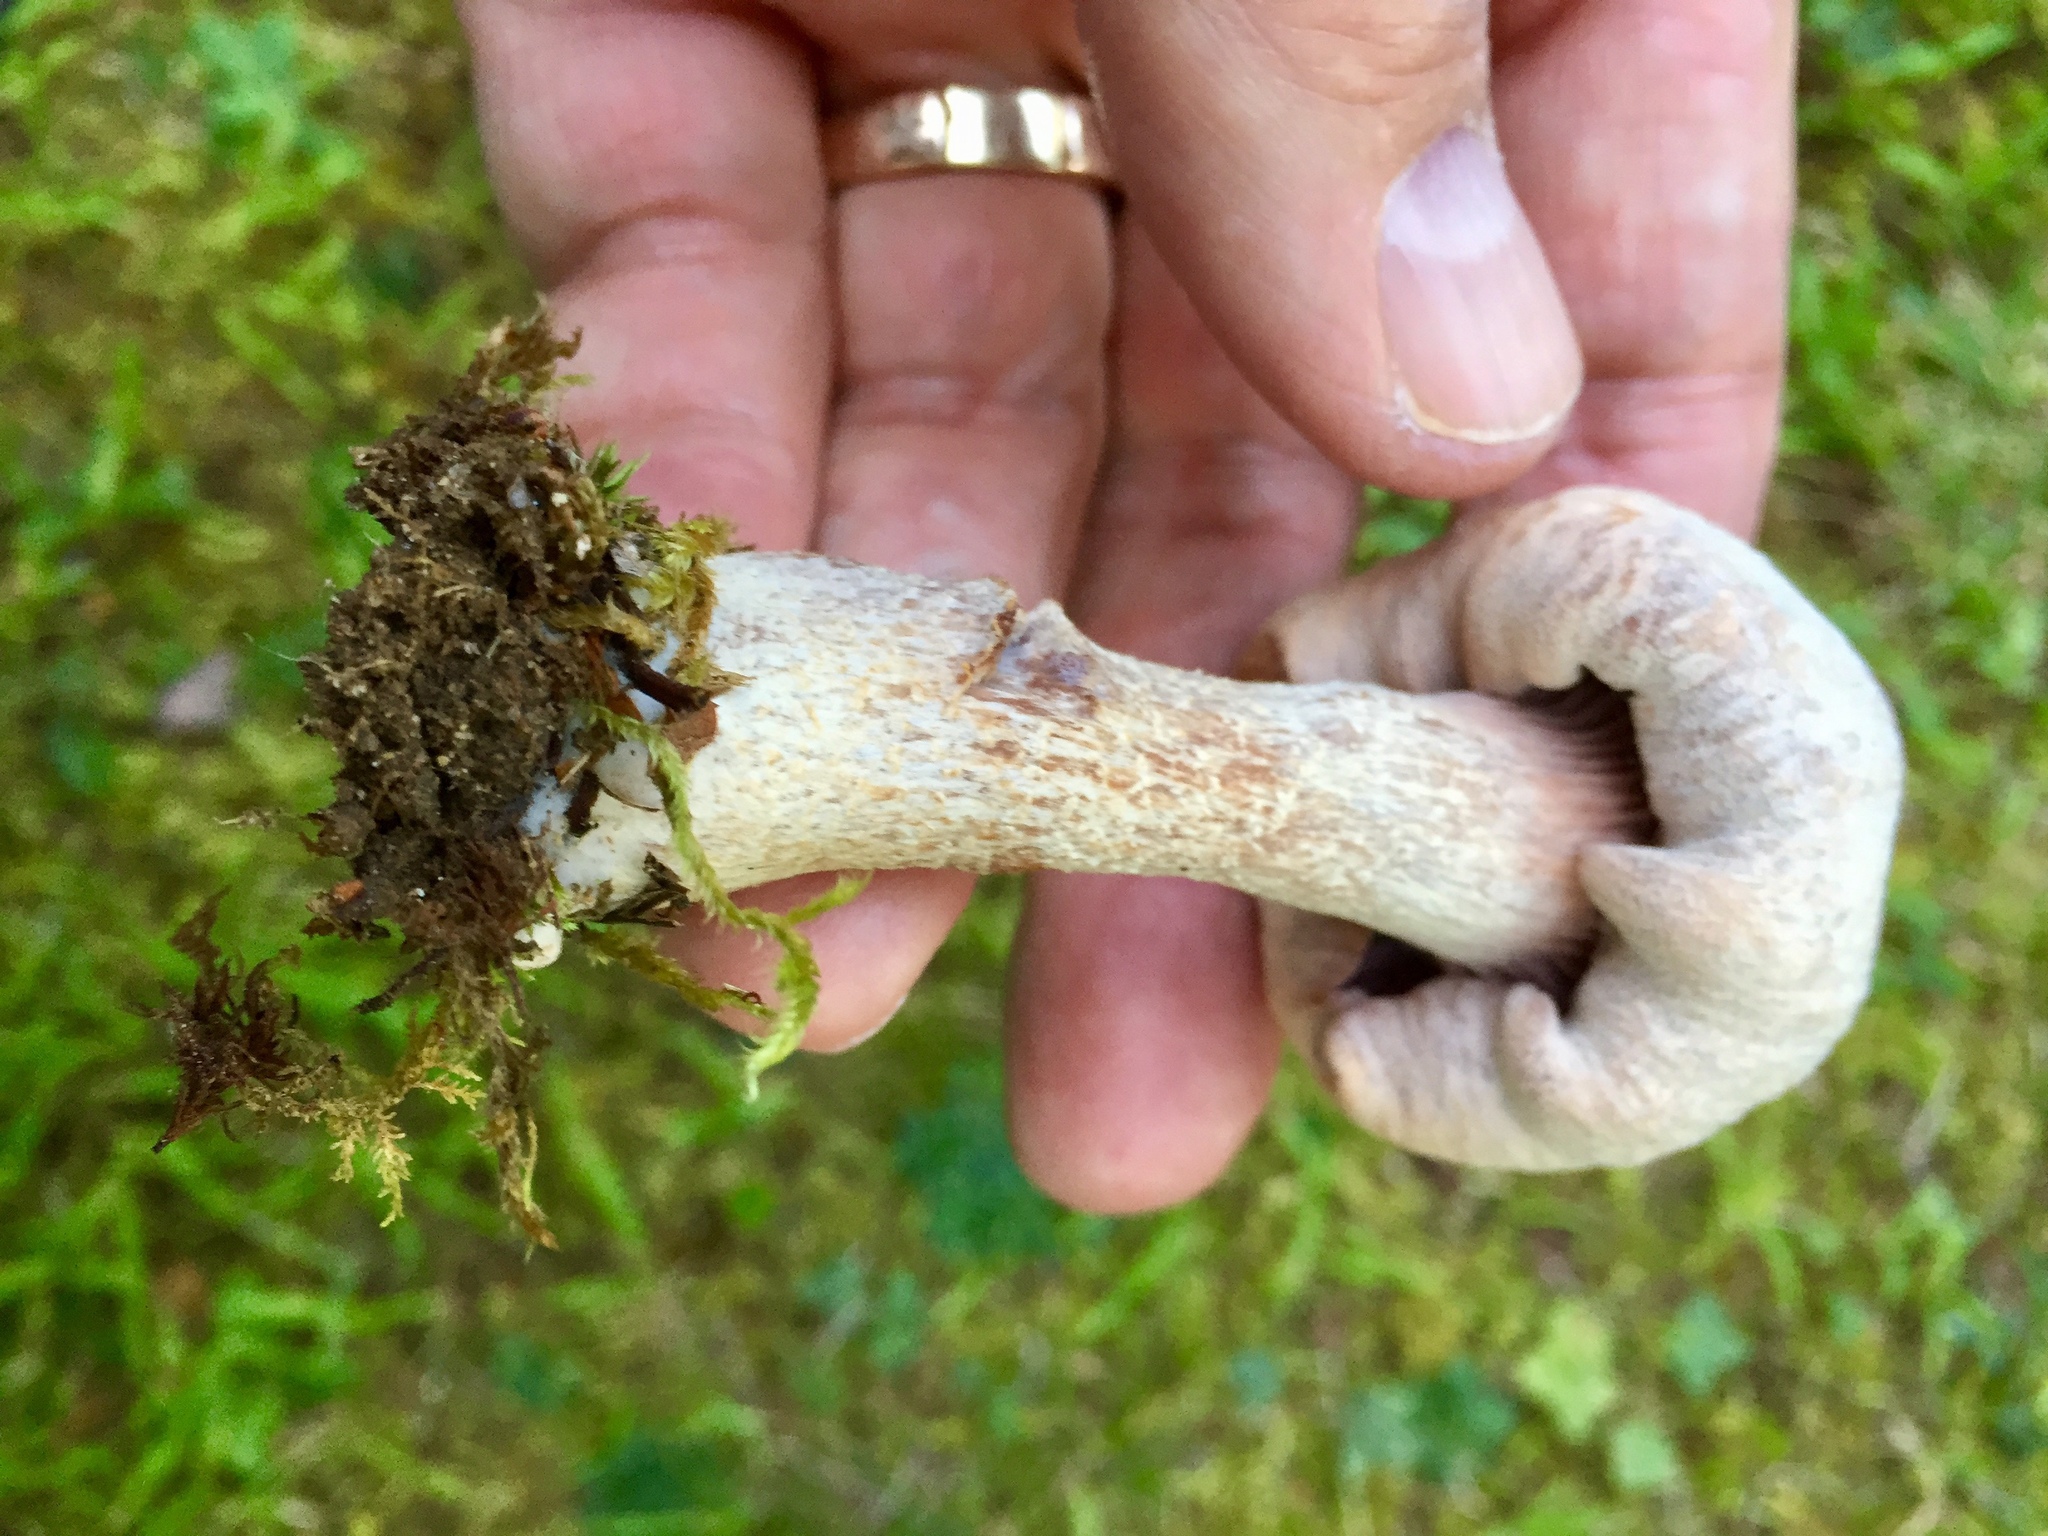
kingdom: Fungi
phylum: Basidiomycota
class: Agaricomycetes
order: Agaricales
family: Hydnangiaceae
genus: Laccaria
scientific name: Laccaria ochropurpurea
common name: Purple laccaria
